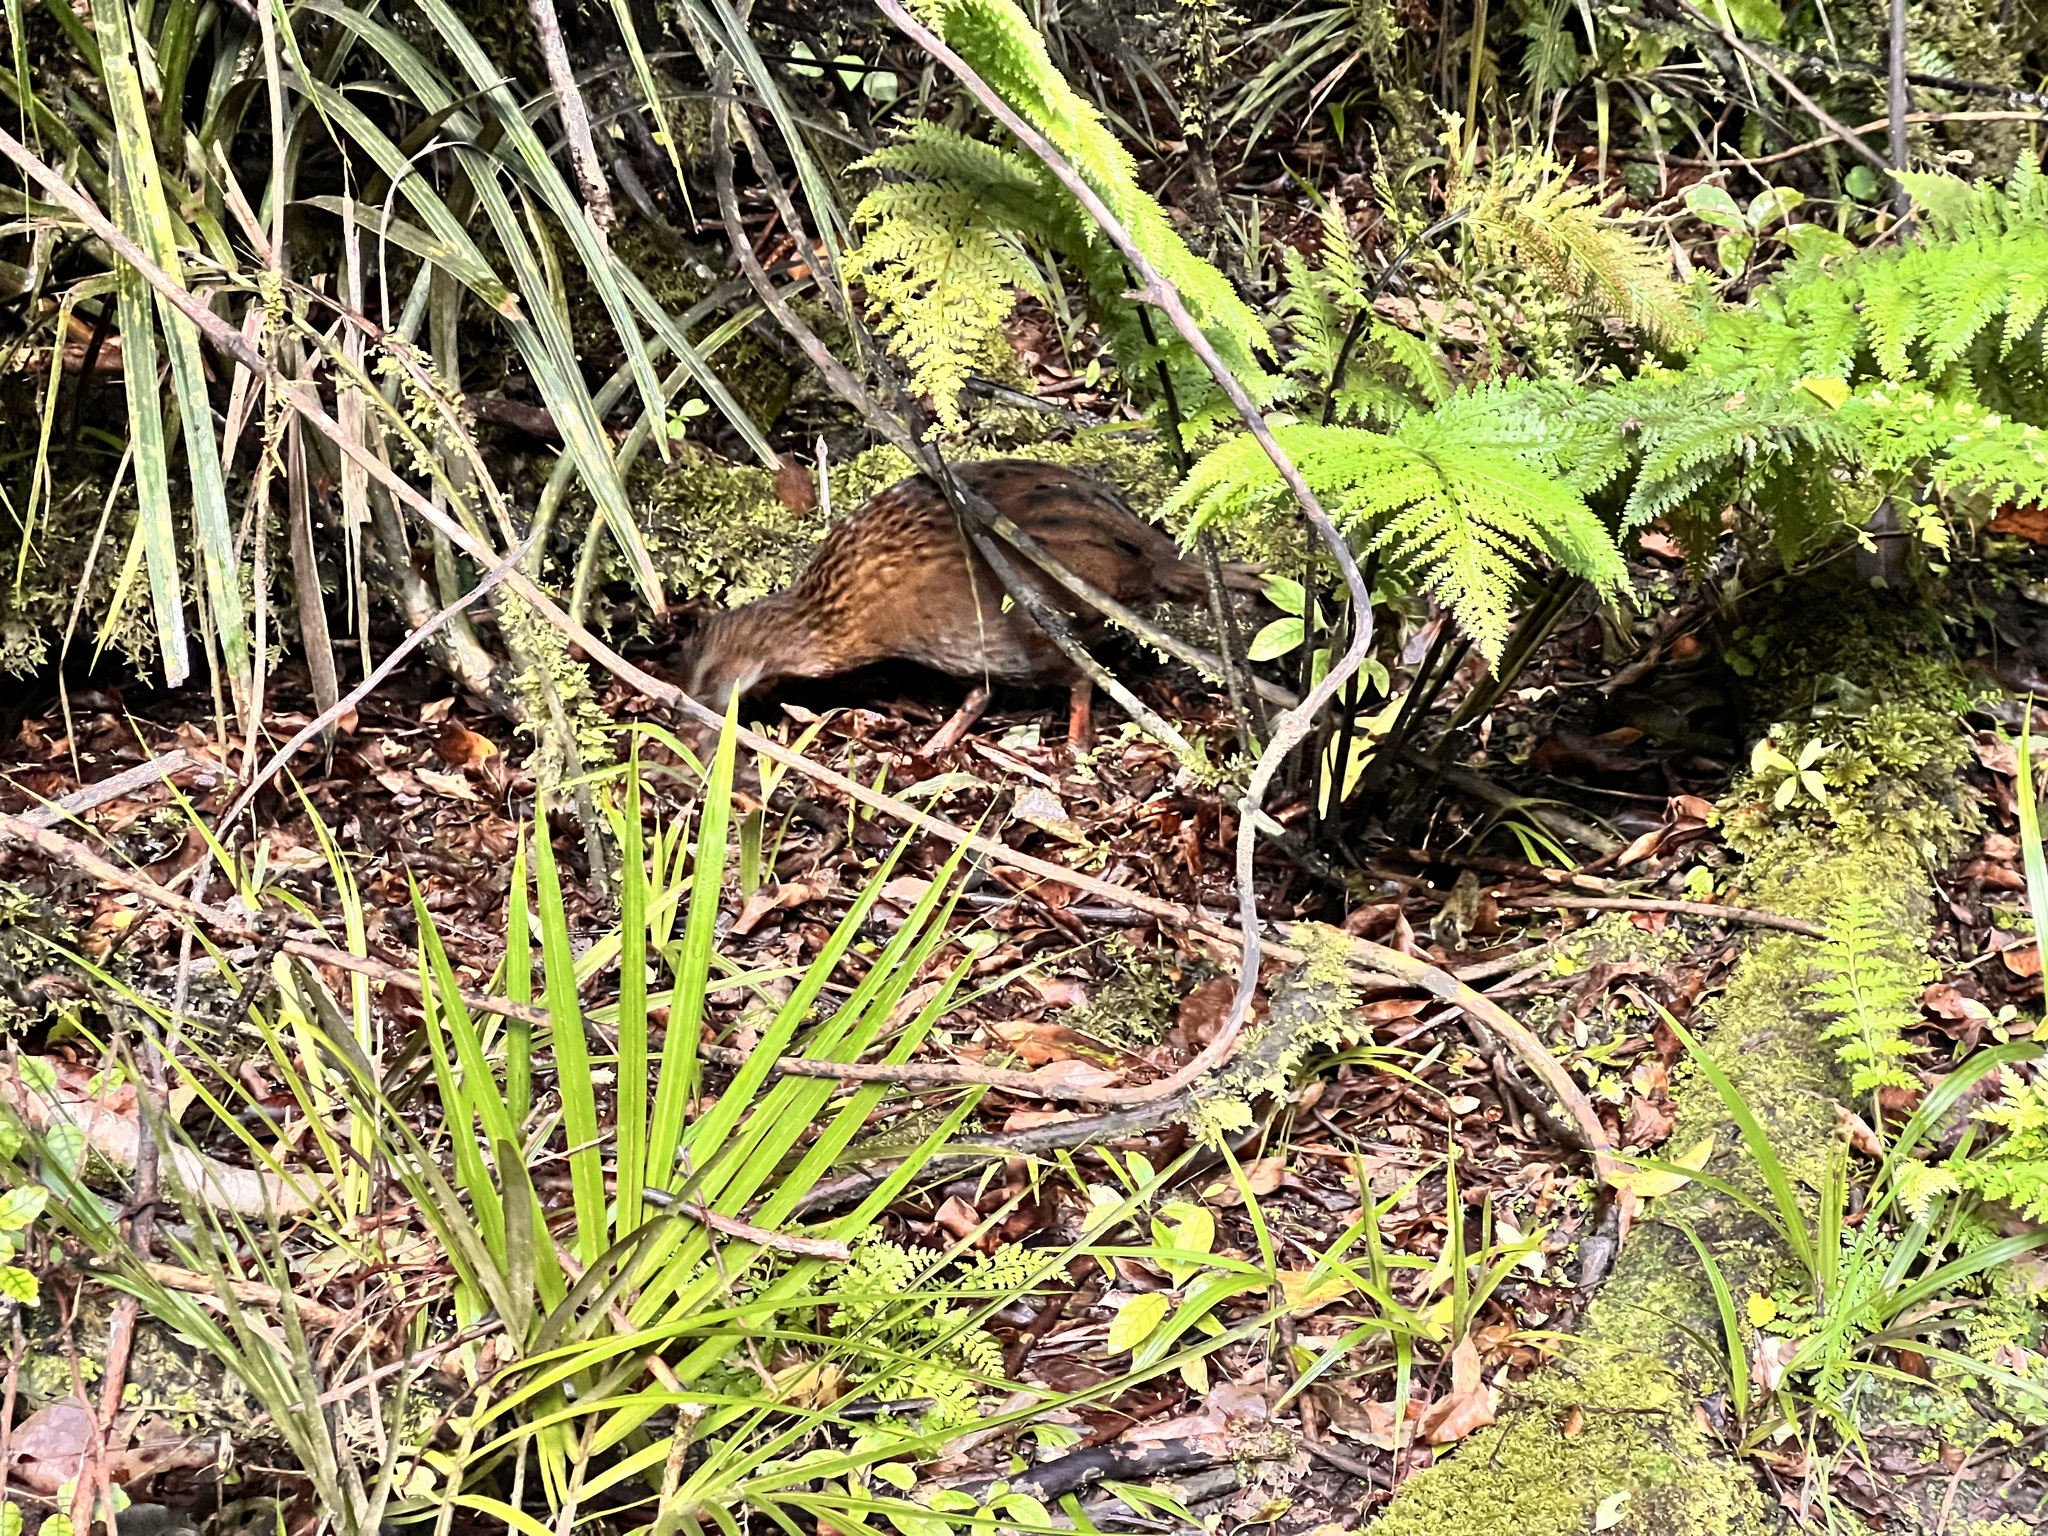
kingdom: Animalia
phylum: Chordata
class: Aves
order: Gruiformes
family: Rallidae
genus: Gallirallus
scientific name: Gallirallus australis
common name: Weka
